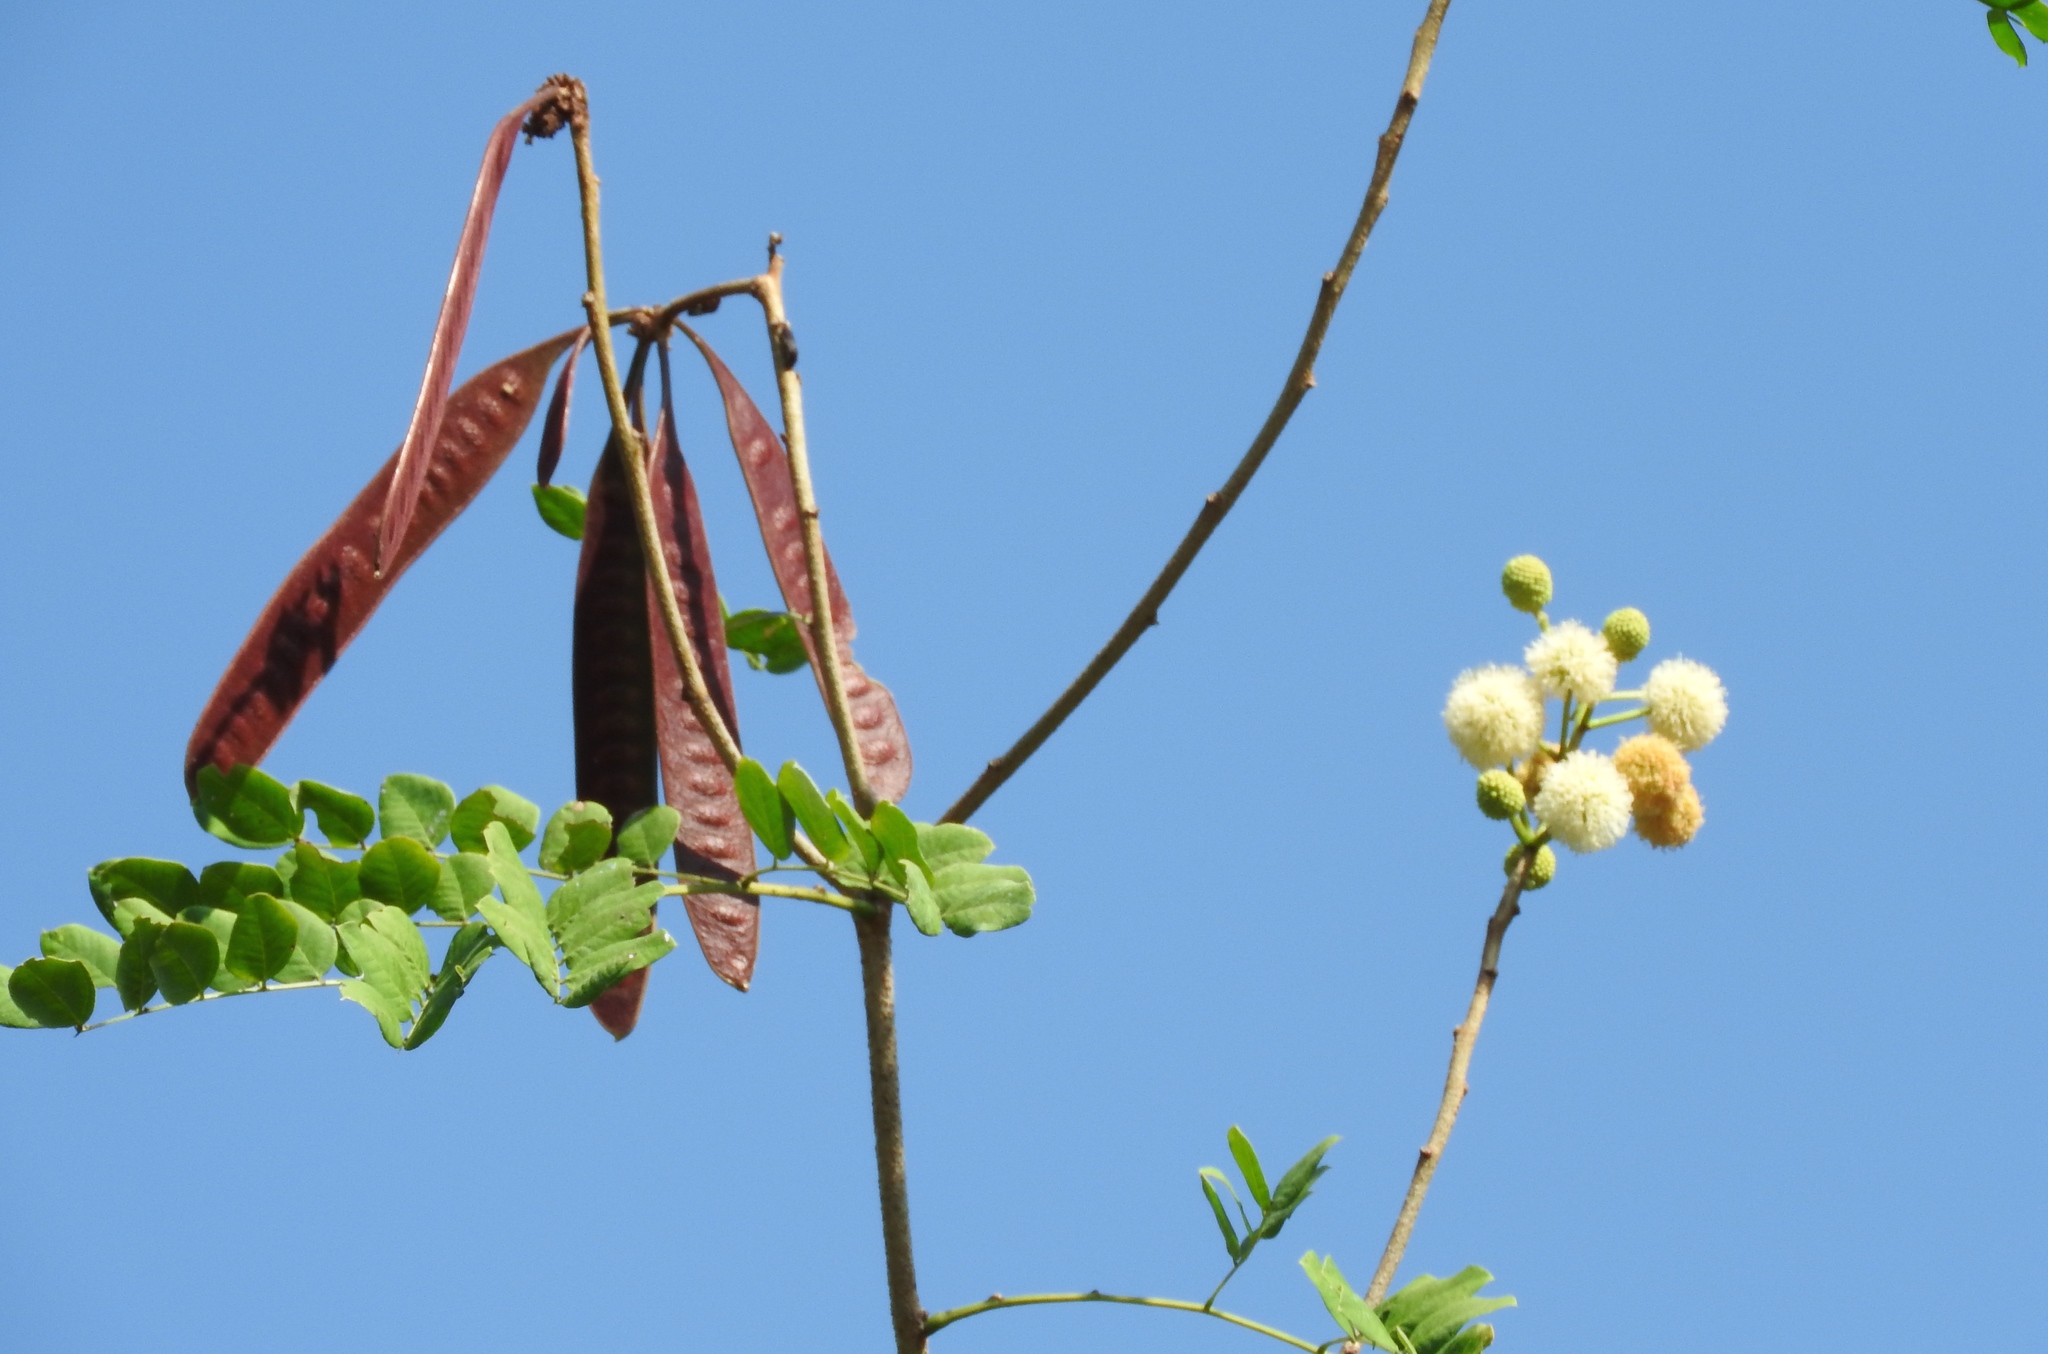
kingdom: Plantae
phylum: Tracheophyta
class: Magnoliopsida
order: Fabales
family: Fabaceae
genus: Leucaena
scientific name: Leucaena lanceolata
